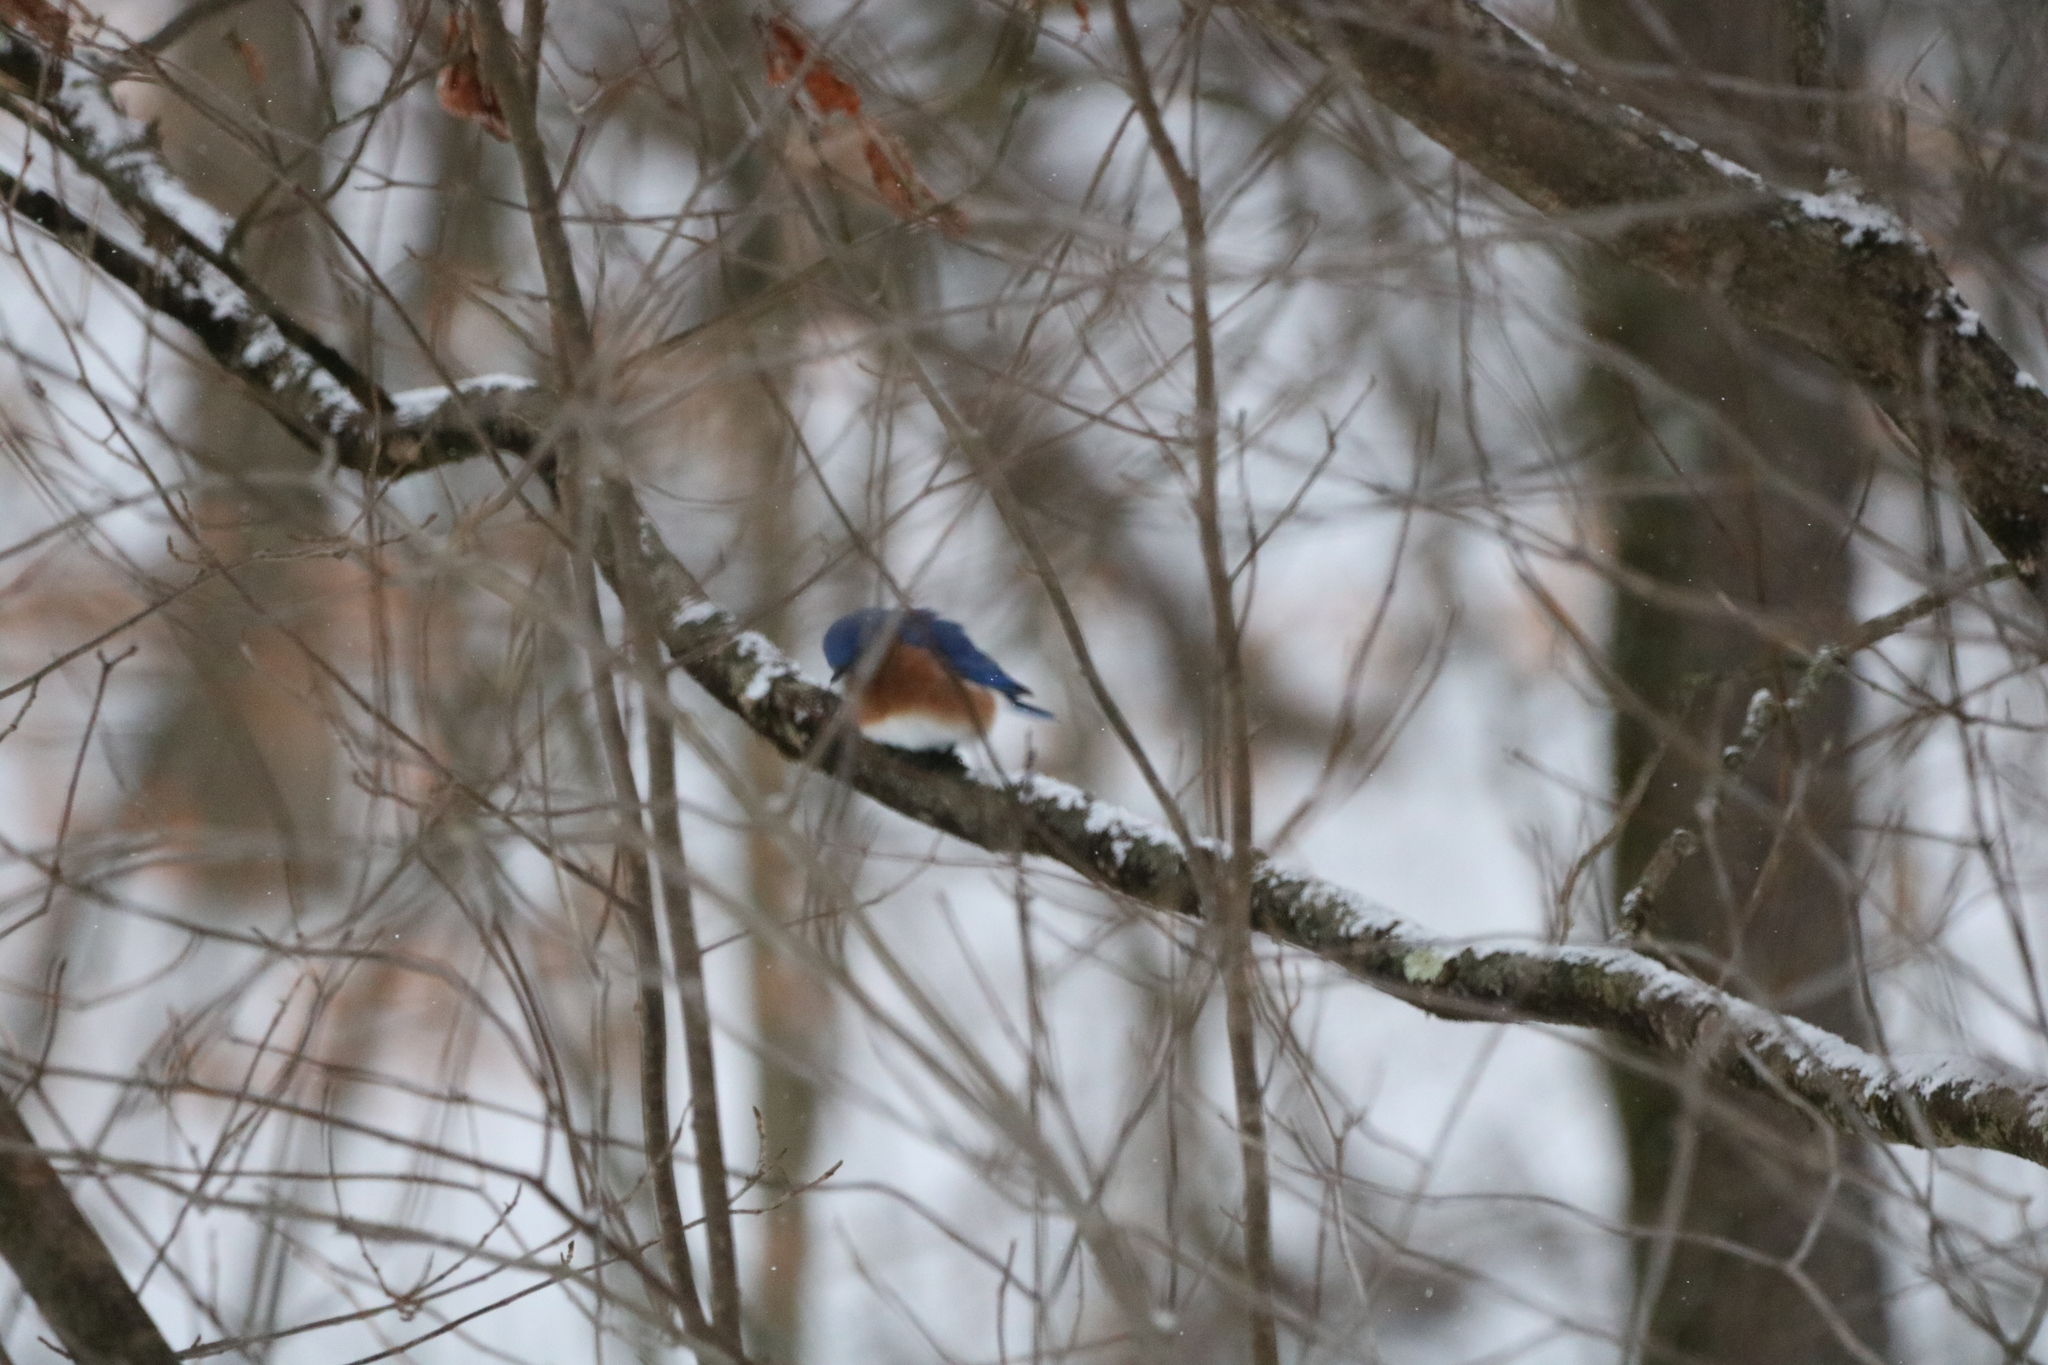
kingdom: Animalia
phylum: Chordata
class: Aves
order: Passeriformes
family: Turdidae
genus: Sialia
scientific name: Sialia sialis
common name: Eastern bluebird
